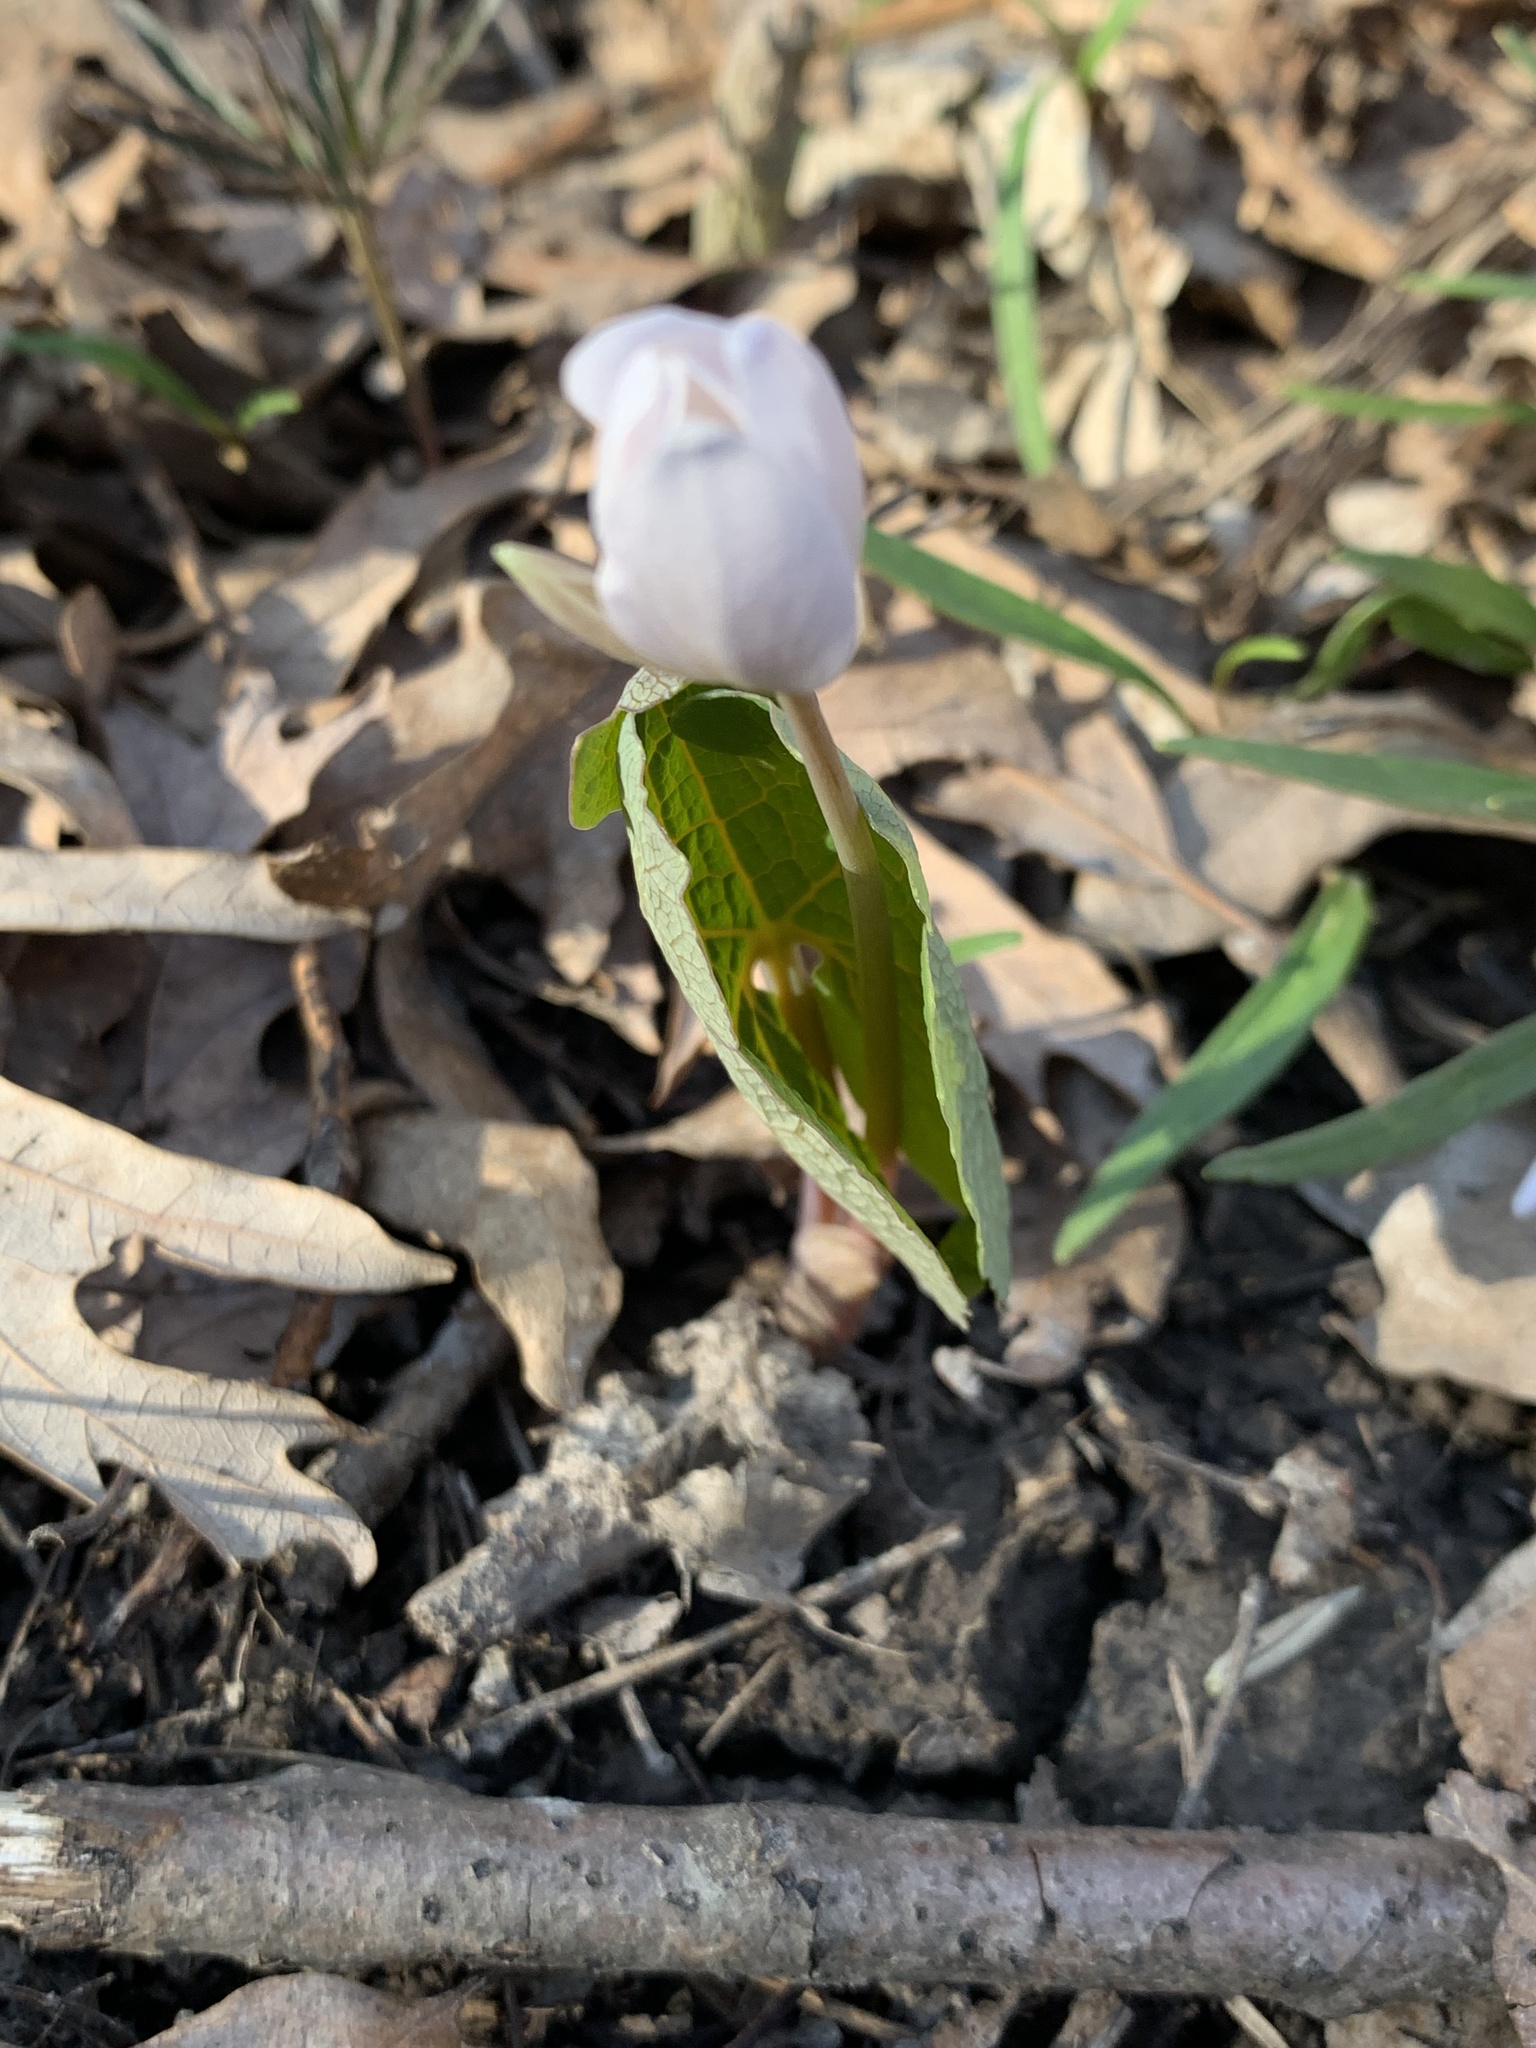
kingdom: Plantae
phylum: Tracheophyta
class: Magnoliopsida
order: Ranunculales
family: Papaveraceae
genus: Sanguinaria
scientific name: Sanguinaria canadensis
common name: Bloodroot
